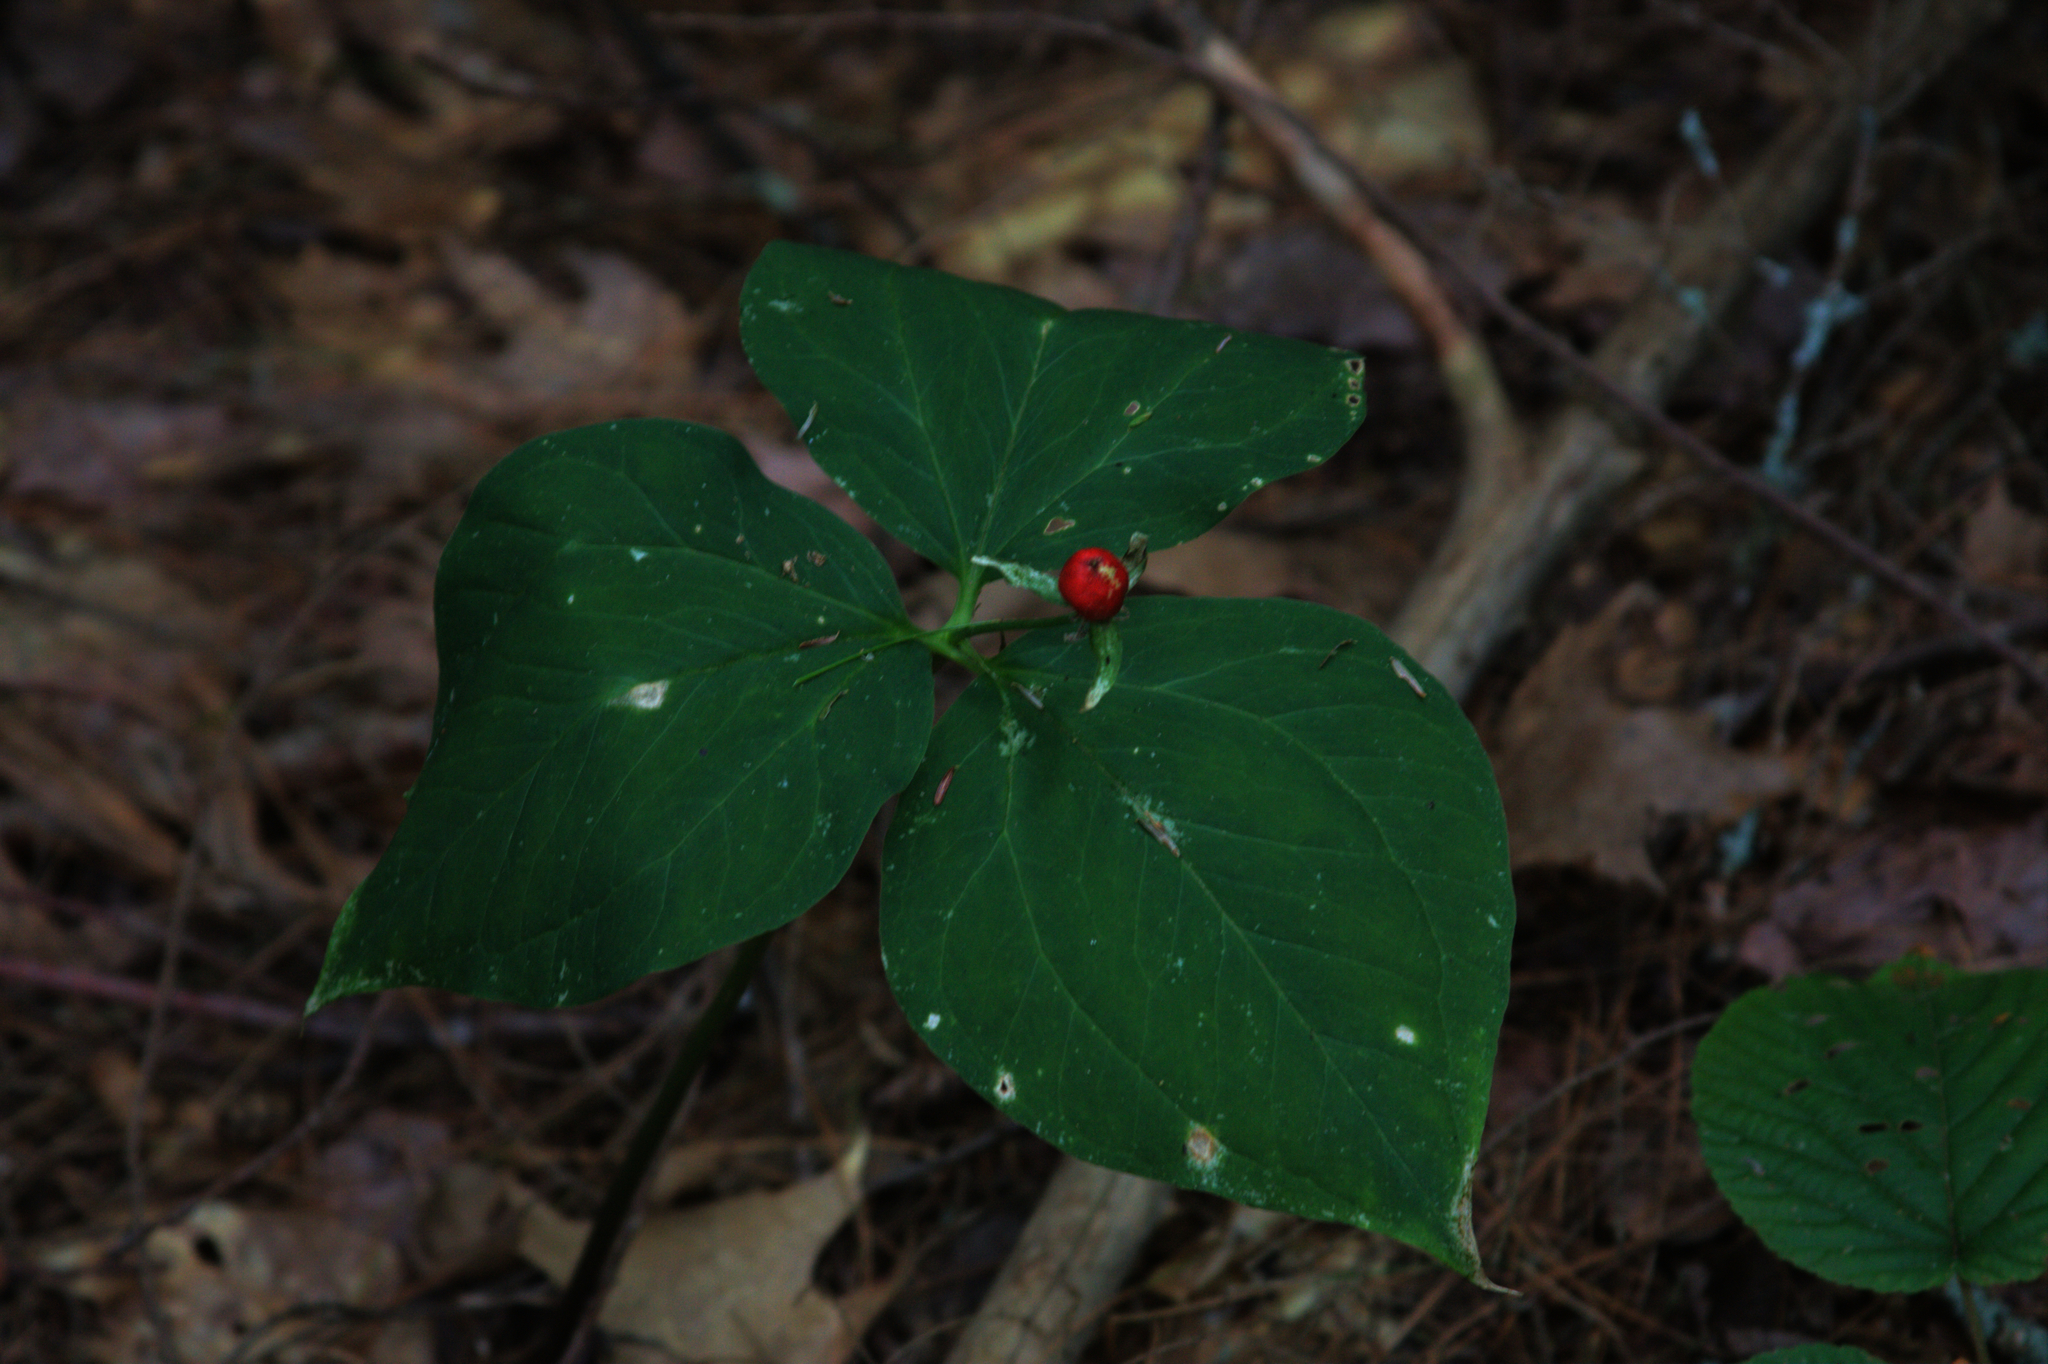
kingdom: Plantae
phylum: Tracheophyta
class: Liliopsida
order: Liliales
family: Melanthiaceae
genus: Trillium
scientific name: Trillium undulatum
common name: Paint trillium
